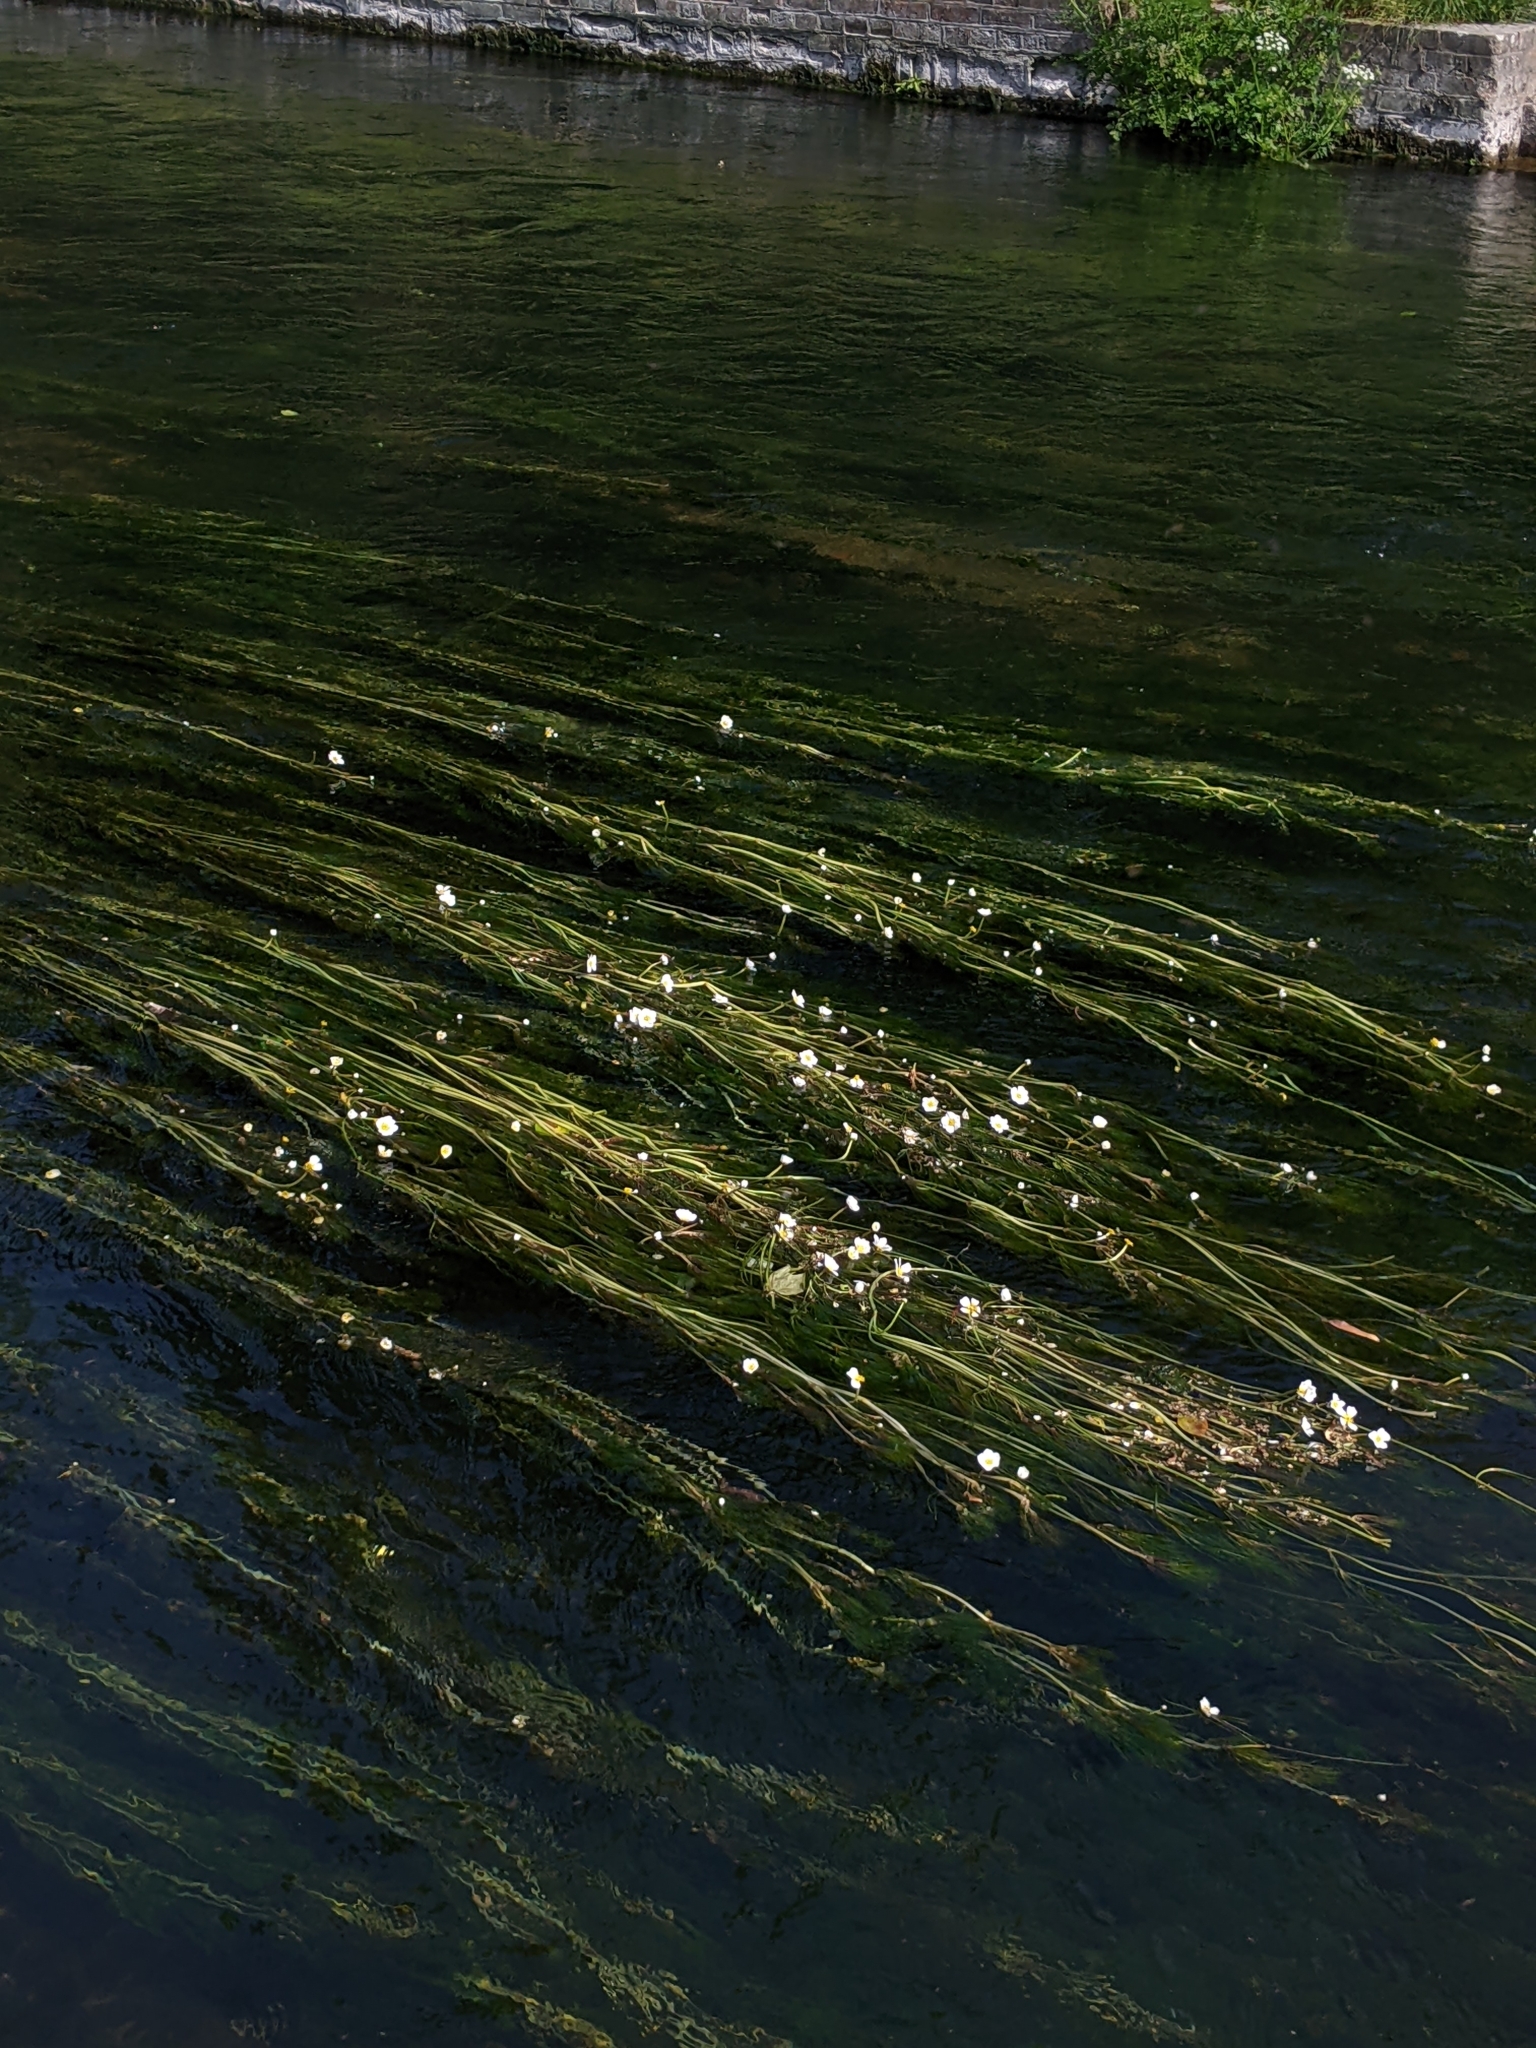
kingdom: Plantae
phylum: Tracheophyta
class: Magnoliopsida
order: Ranunculales
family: Ranunculaceae
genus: Ranunculus
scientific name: Ranunculus fluitans
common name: River water-crowfoot
